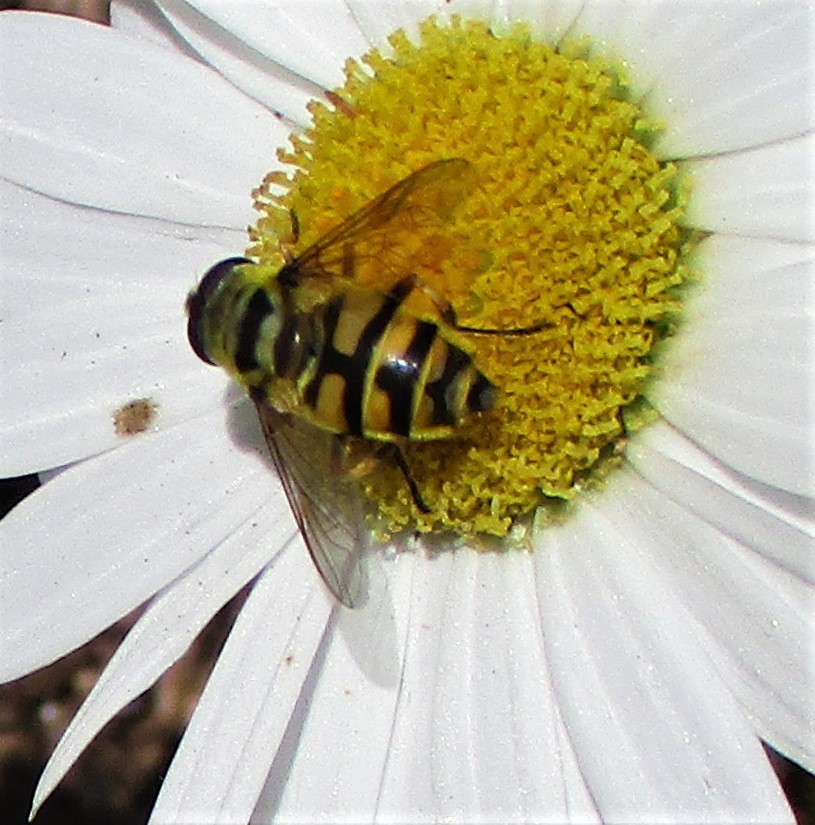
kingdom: Animalia
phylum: Arthropoda
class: Insecta
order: Diptera
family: Syrphidae
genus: Myathropa
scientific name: Myathropa florea
